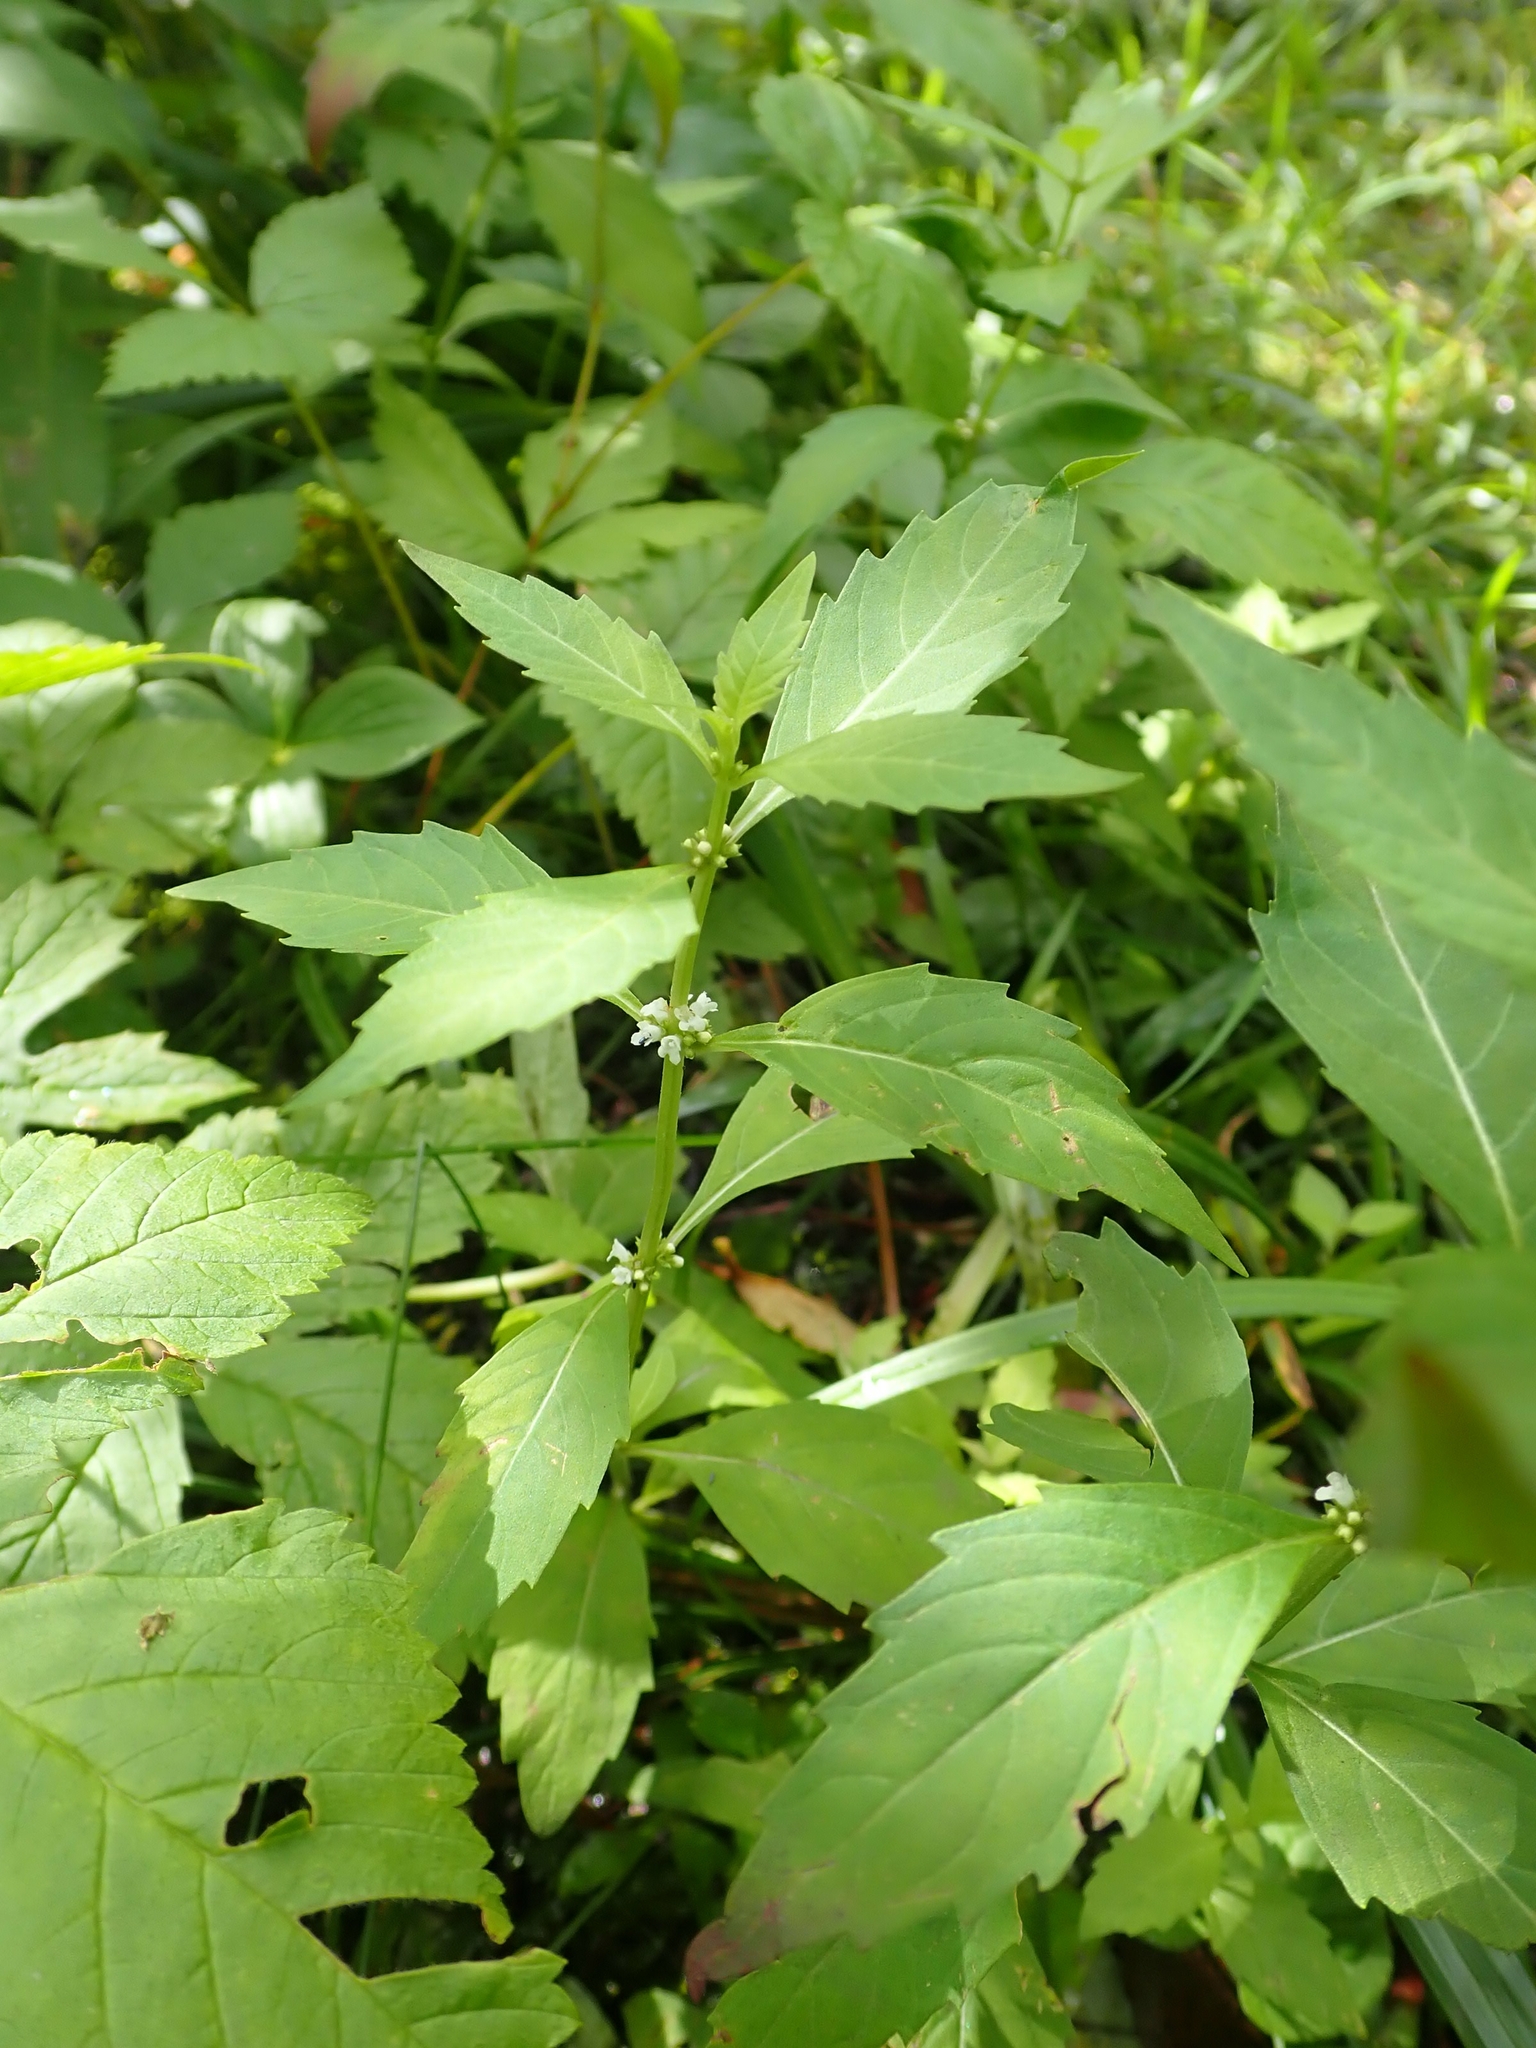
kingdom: Plantae
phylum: Tracheophyta
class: Magnoliopsida
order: Lamiales
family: Lamiaceae
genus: Lycopus
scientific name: Lycopus uniflorus
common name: Northern bugleweed
